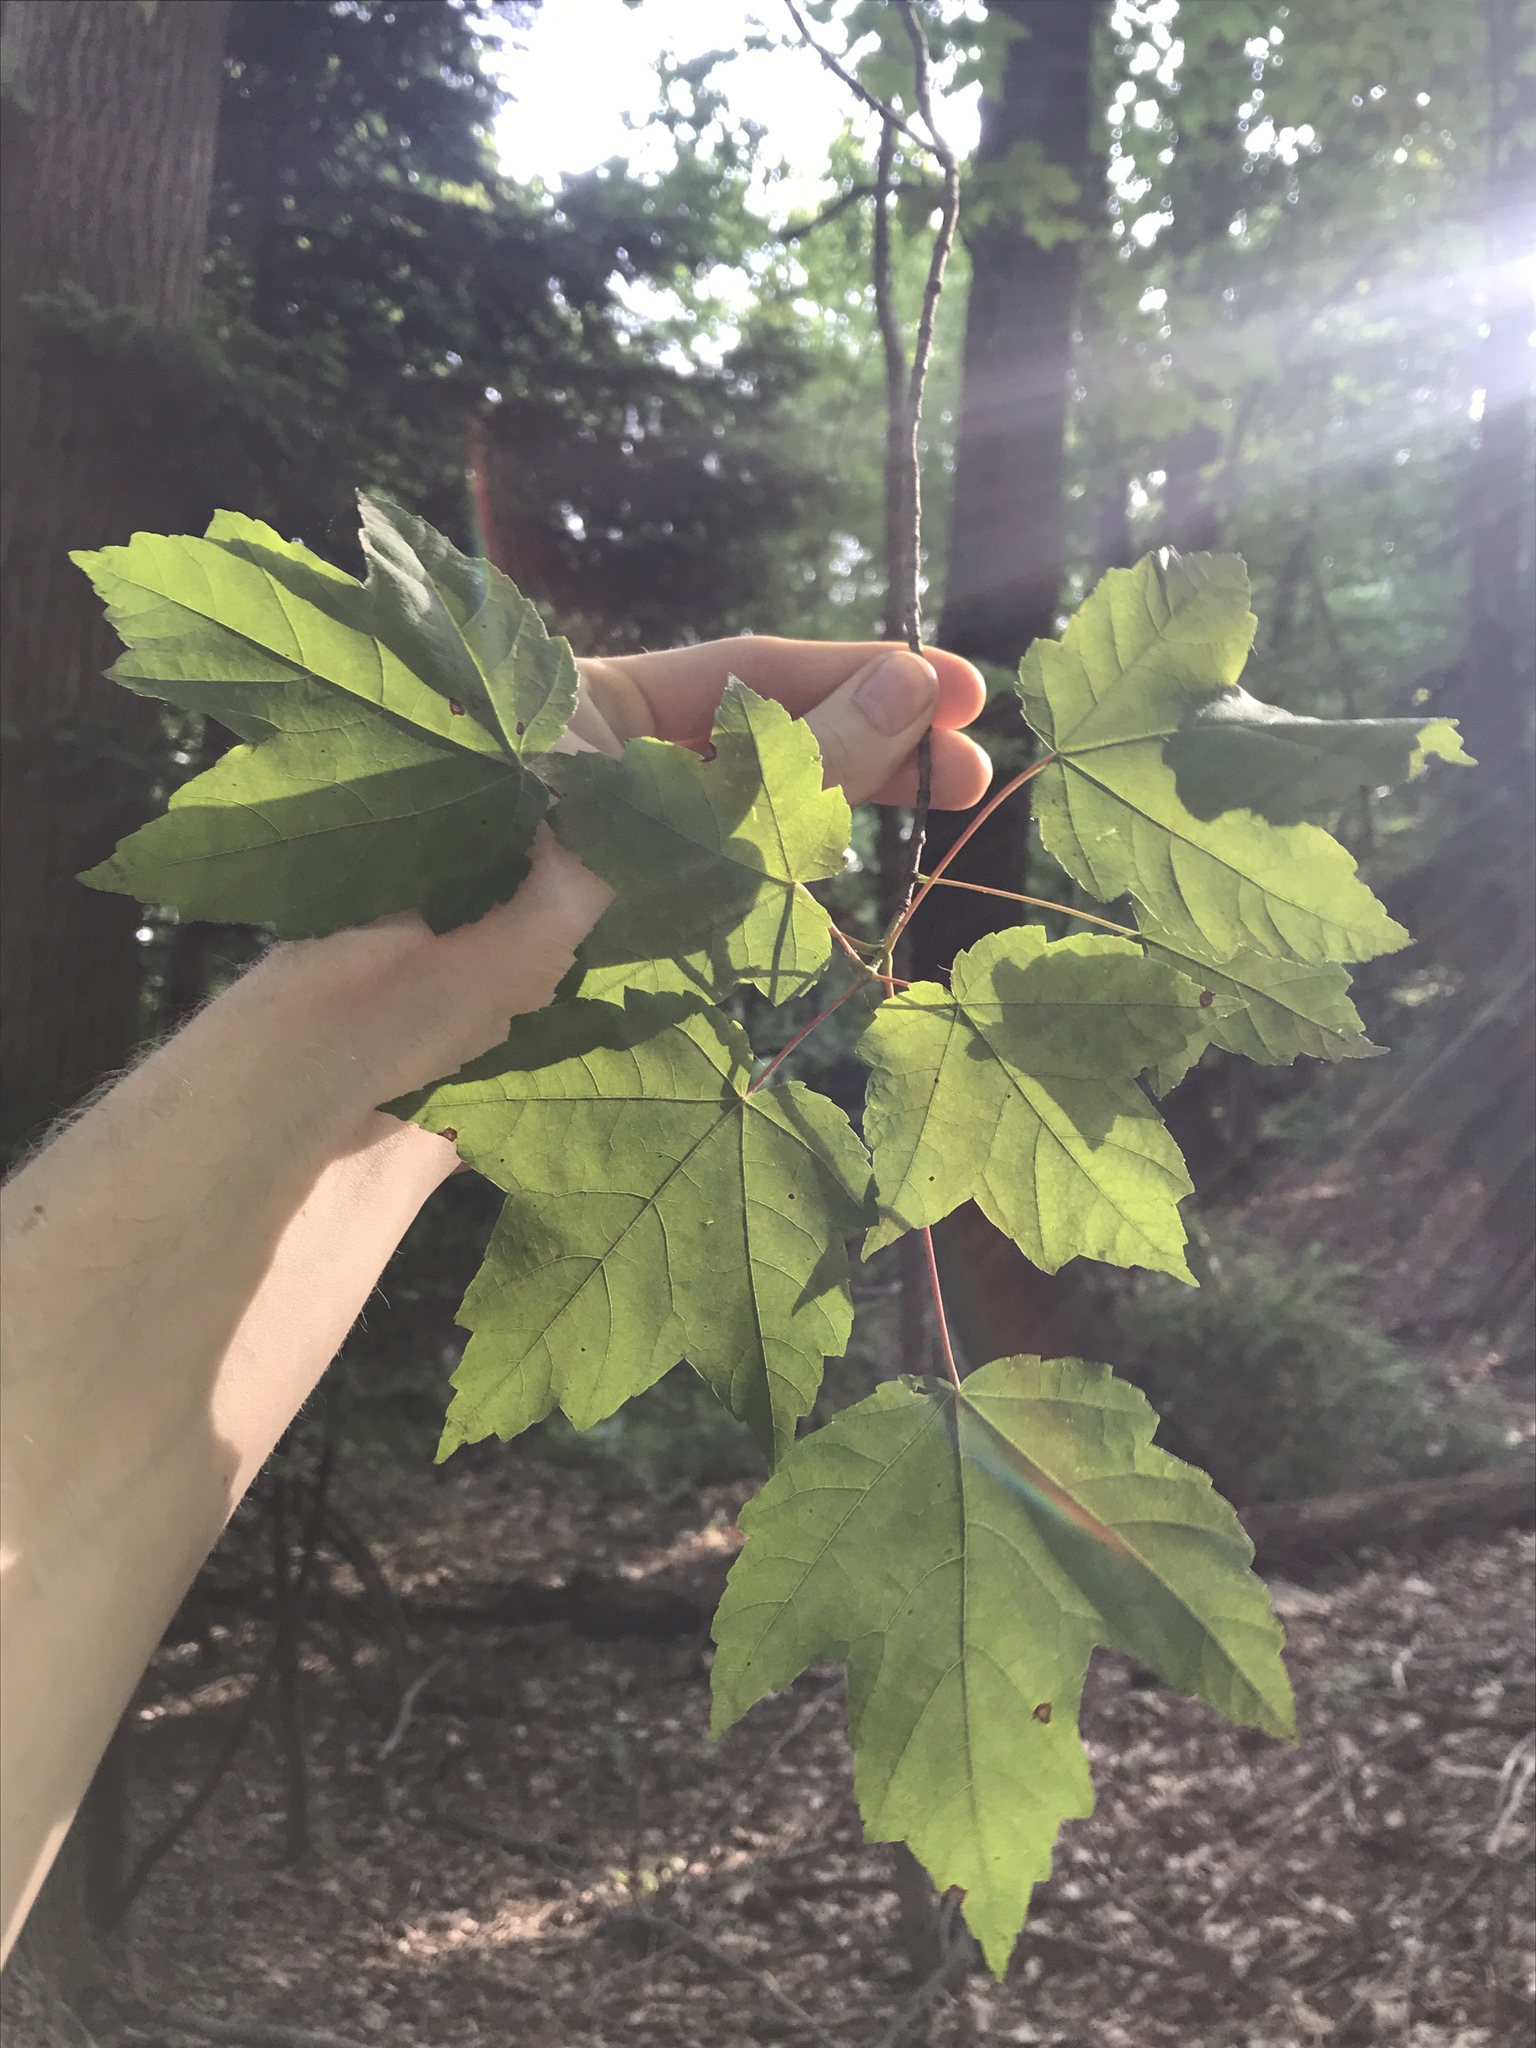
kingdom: Plantae
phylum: Tracheophyta
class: Magnoliopsida
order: Sapindales
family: Sapindaceae
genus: Acer
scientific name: Acer rubrum
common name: Red maple
